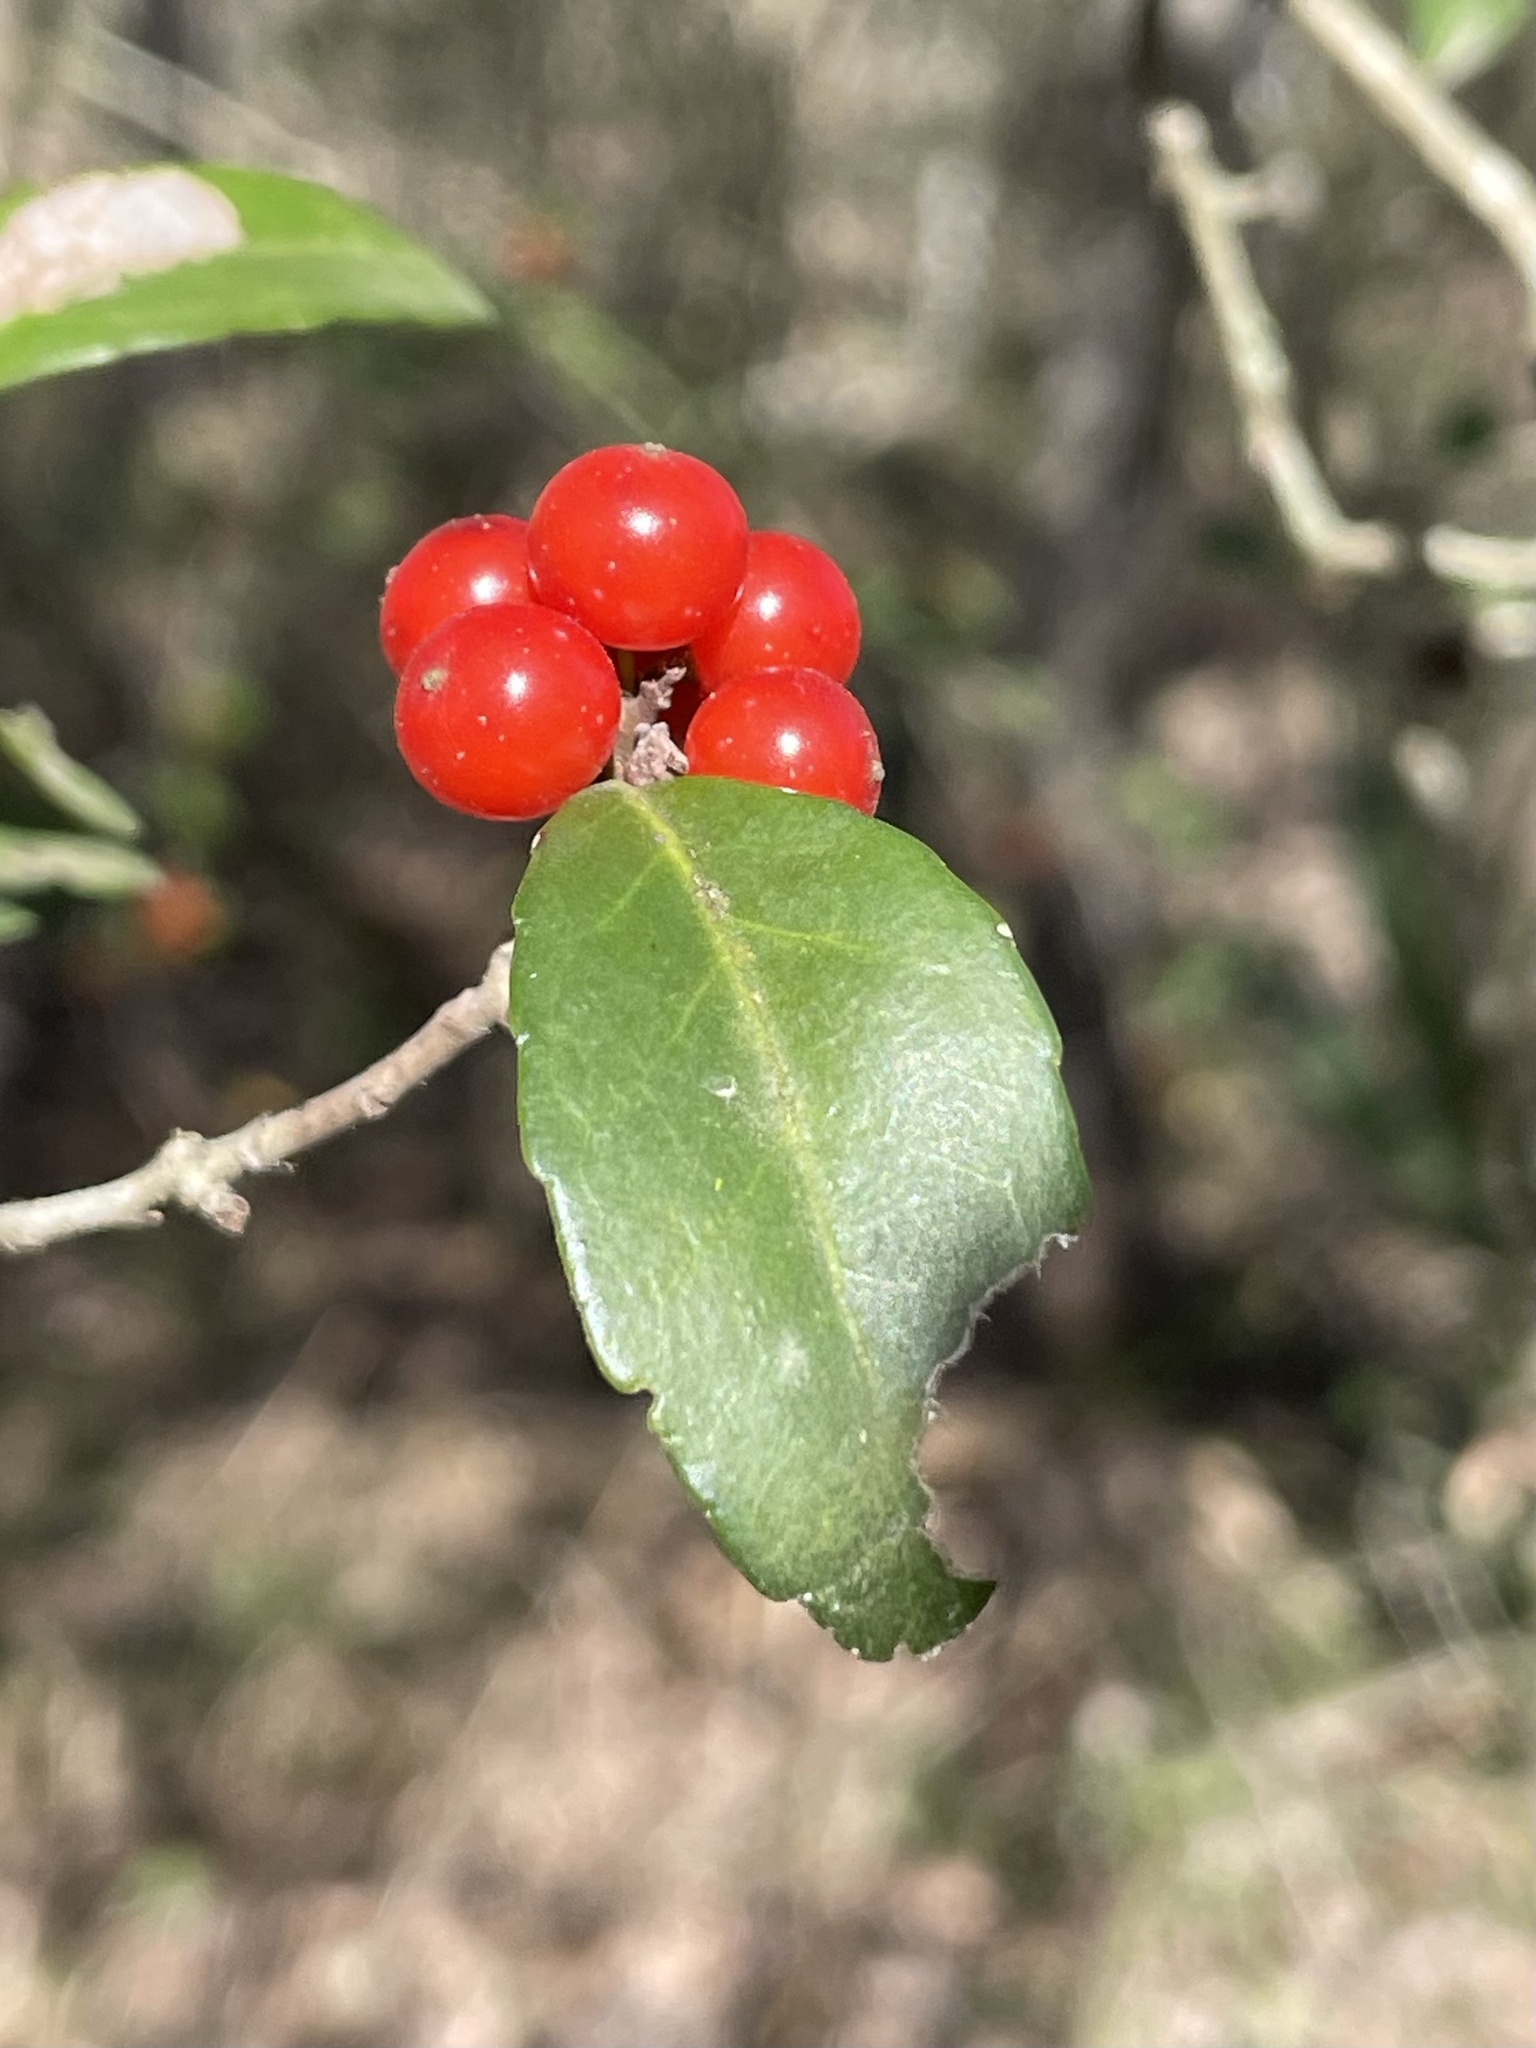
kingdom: Plantae
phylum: Tracheophyta
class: Magnoliopsida
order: Aquifoliales
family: Aquifoliaceae
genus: Ilex
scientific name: Ilex vomitoria
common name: Yaupon holly
